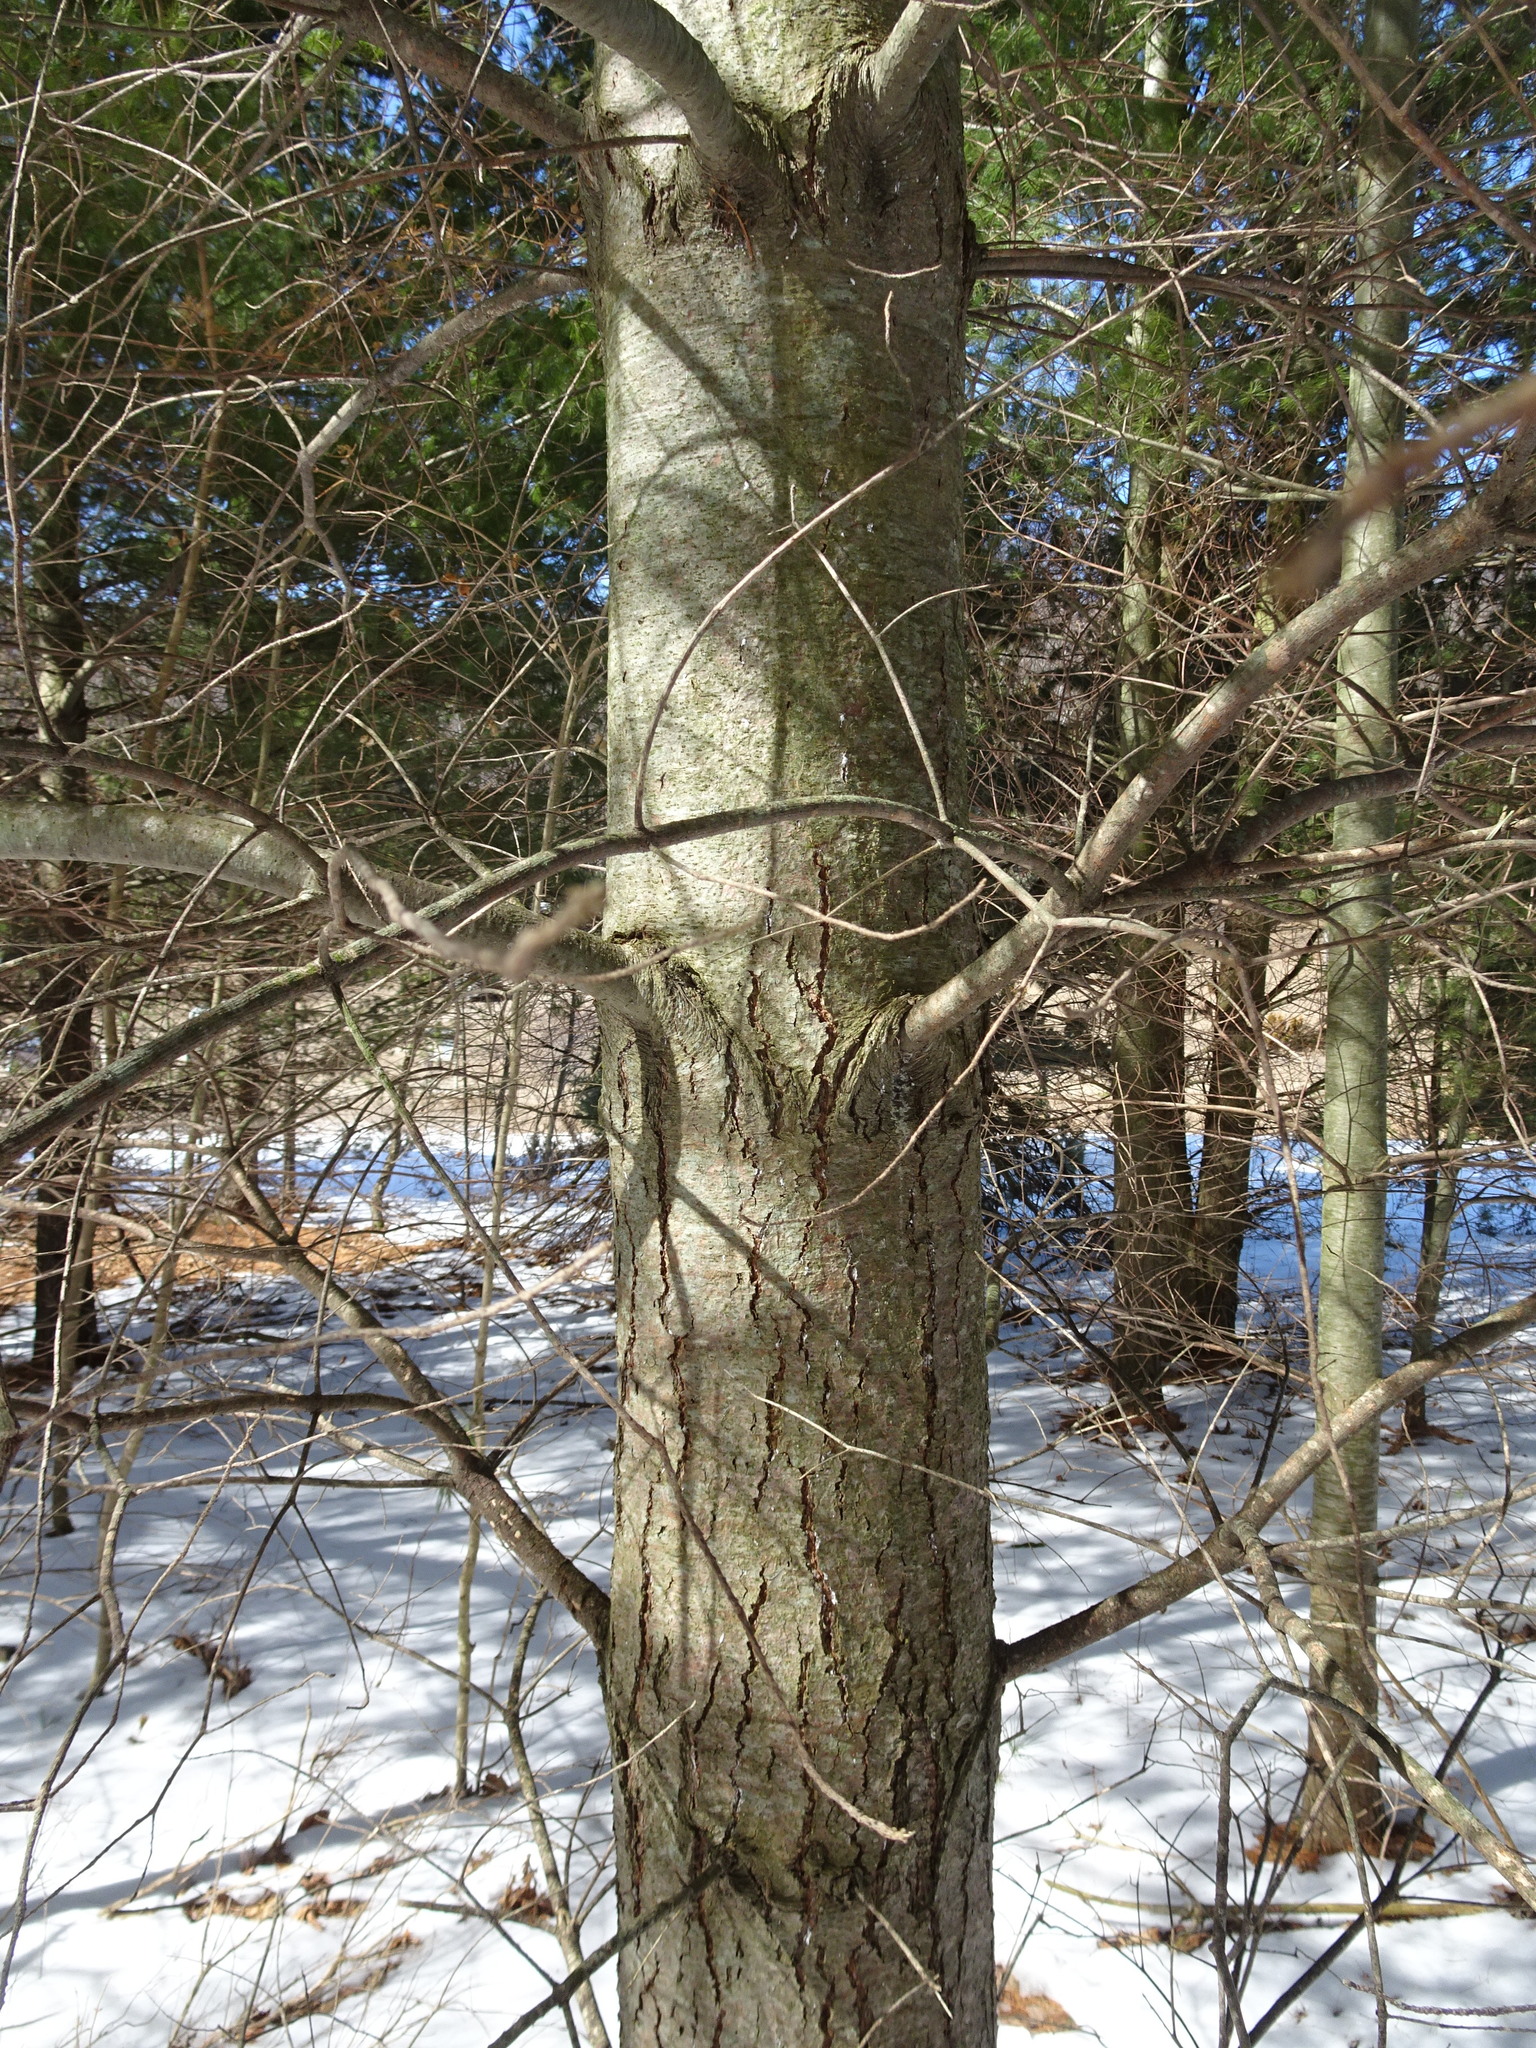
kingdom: Plantae
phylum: Tracheophyta
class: Pinopsida
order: Pinales
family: Pinaceae
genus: Pinus
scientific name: Pinus strobus
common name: Weymouth pine
